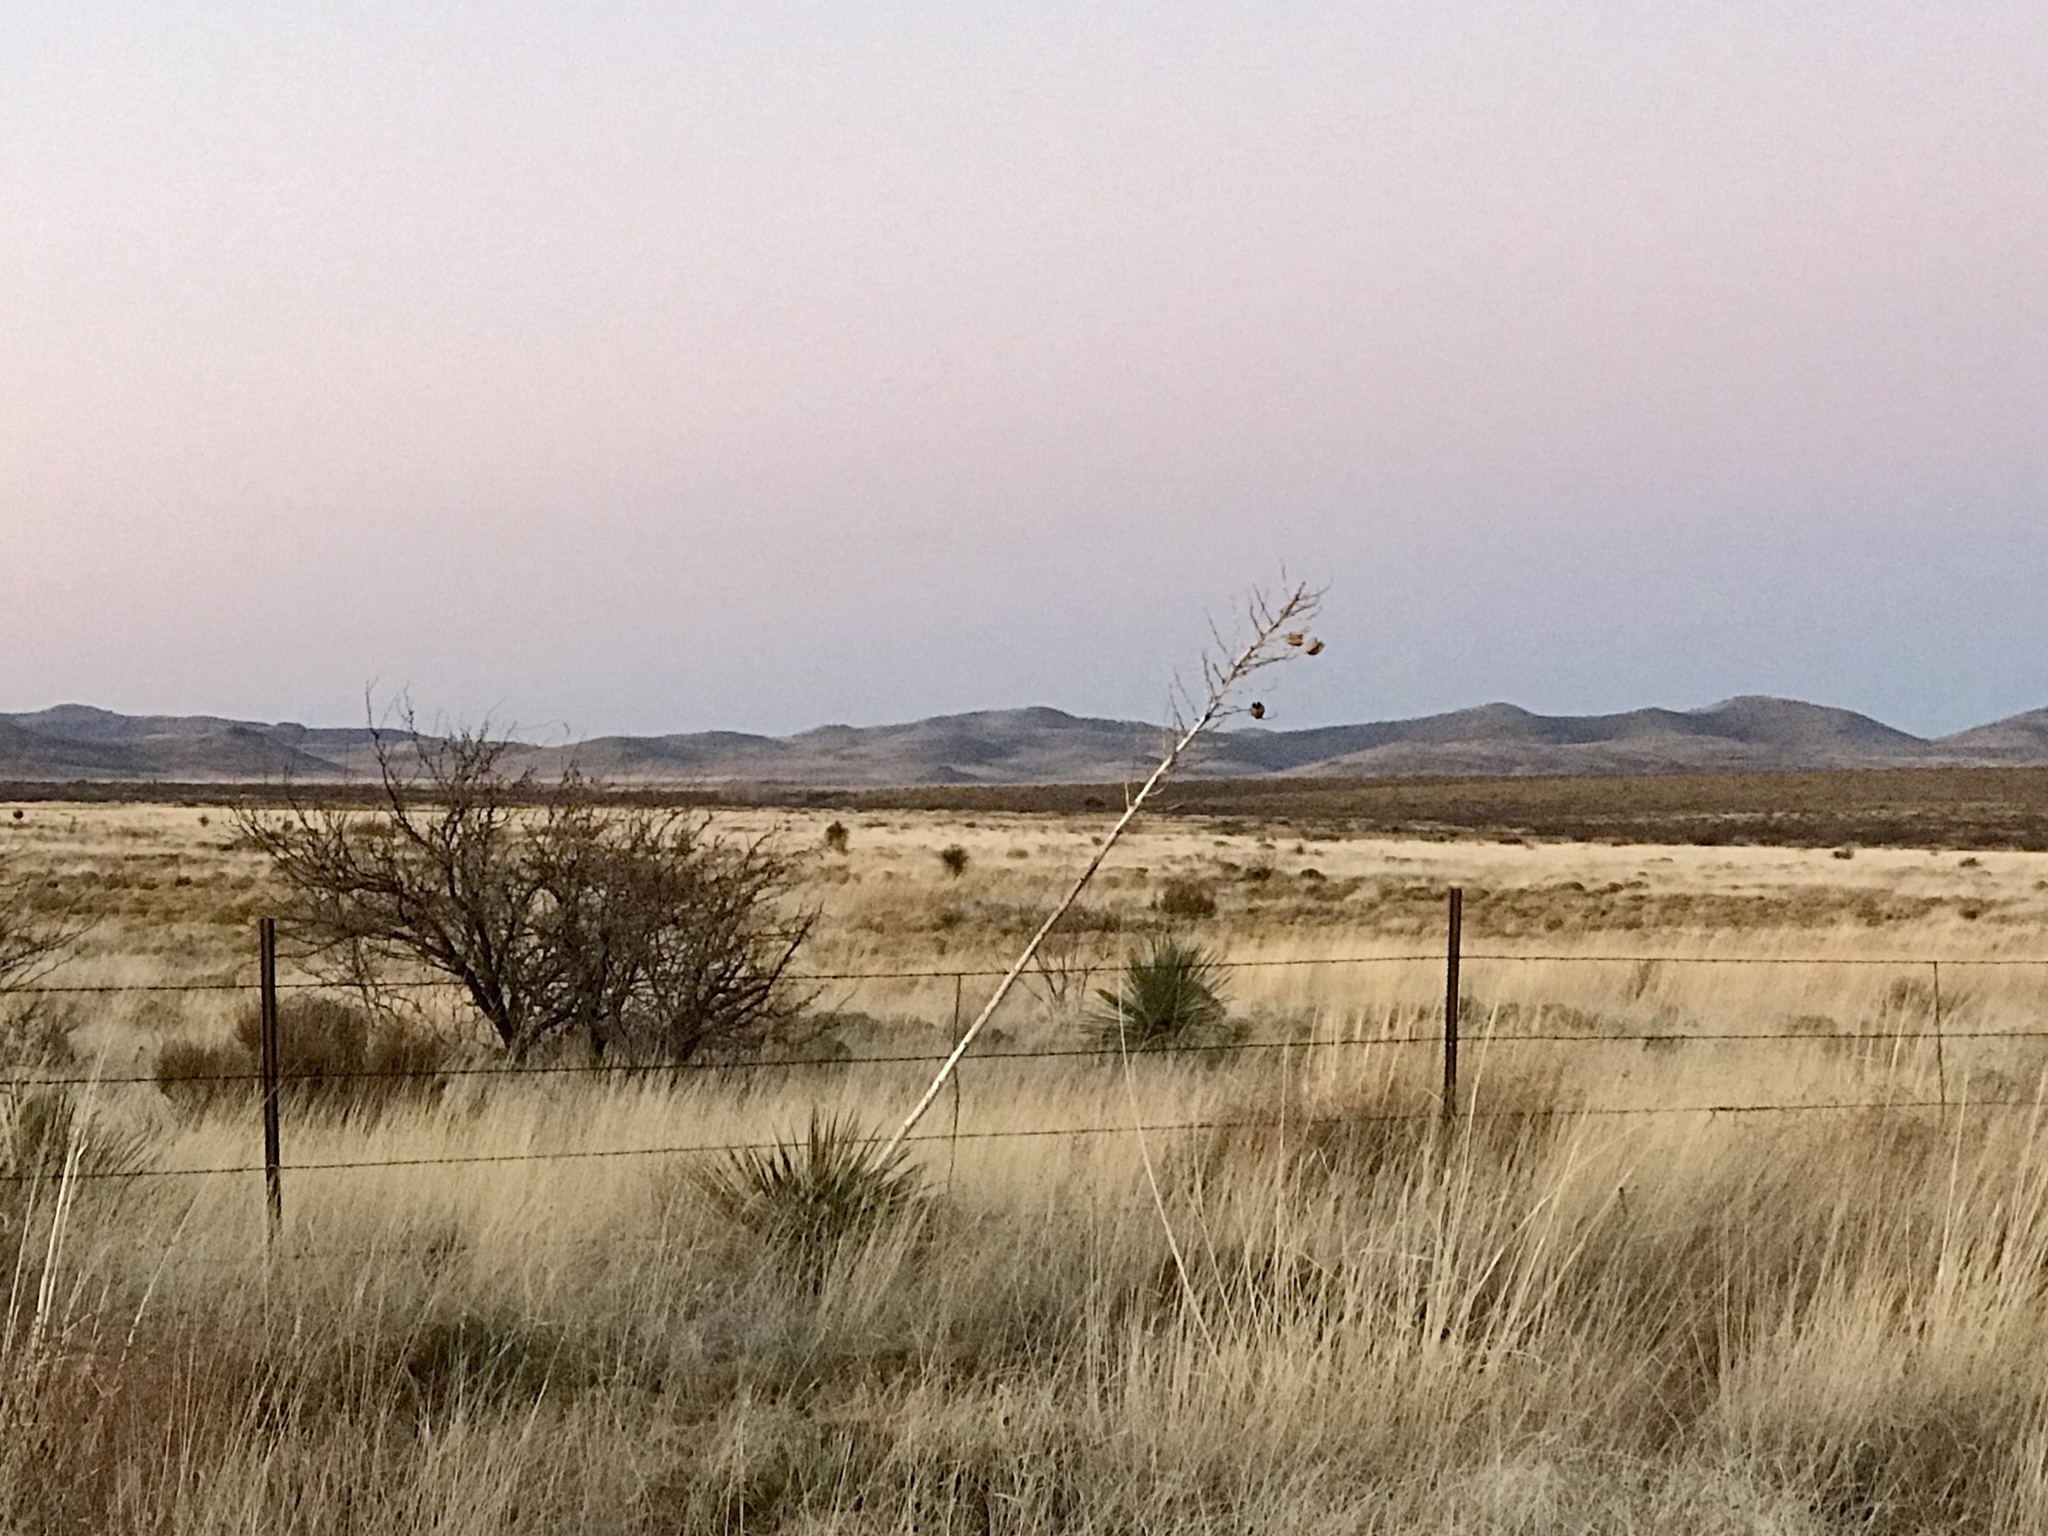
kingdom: Plantae
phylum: Tracheophyta
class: Liliopsida
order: Asparagales
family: Asparagaceae
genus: Yucca
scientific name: Yucca elata
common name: Palmella
